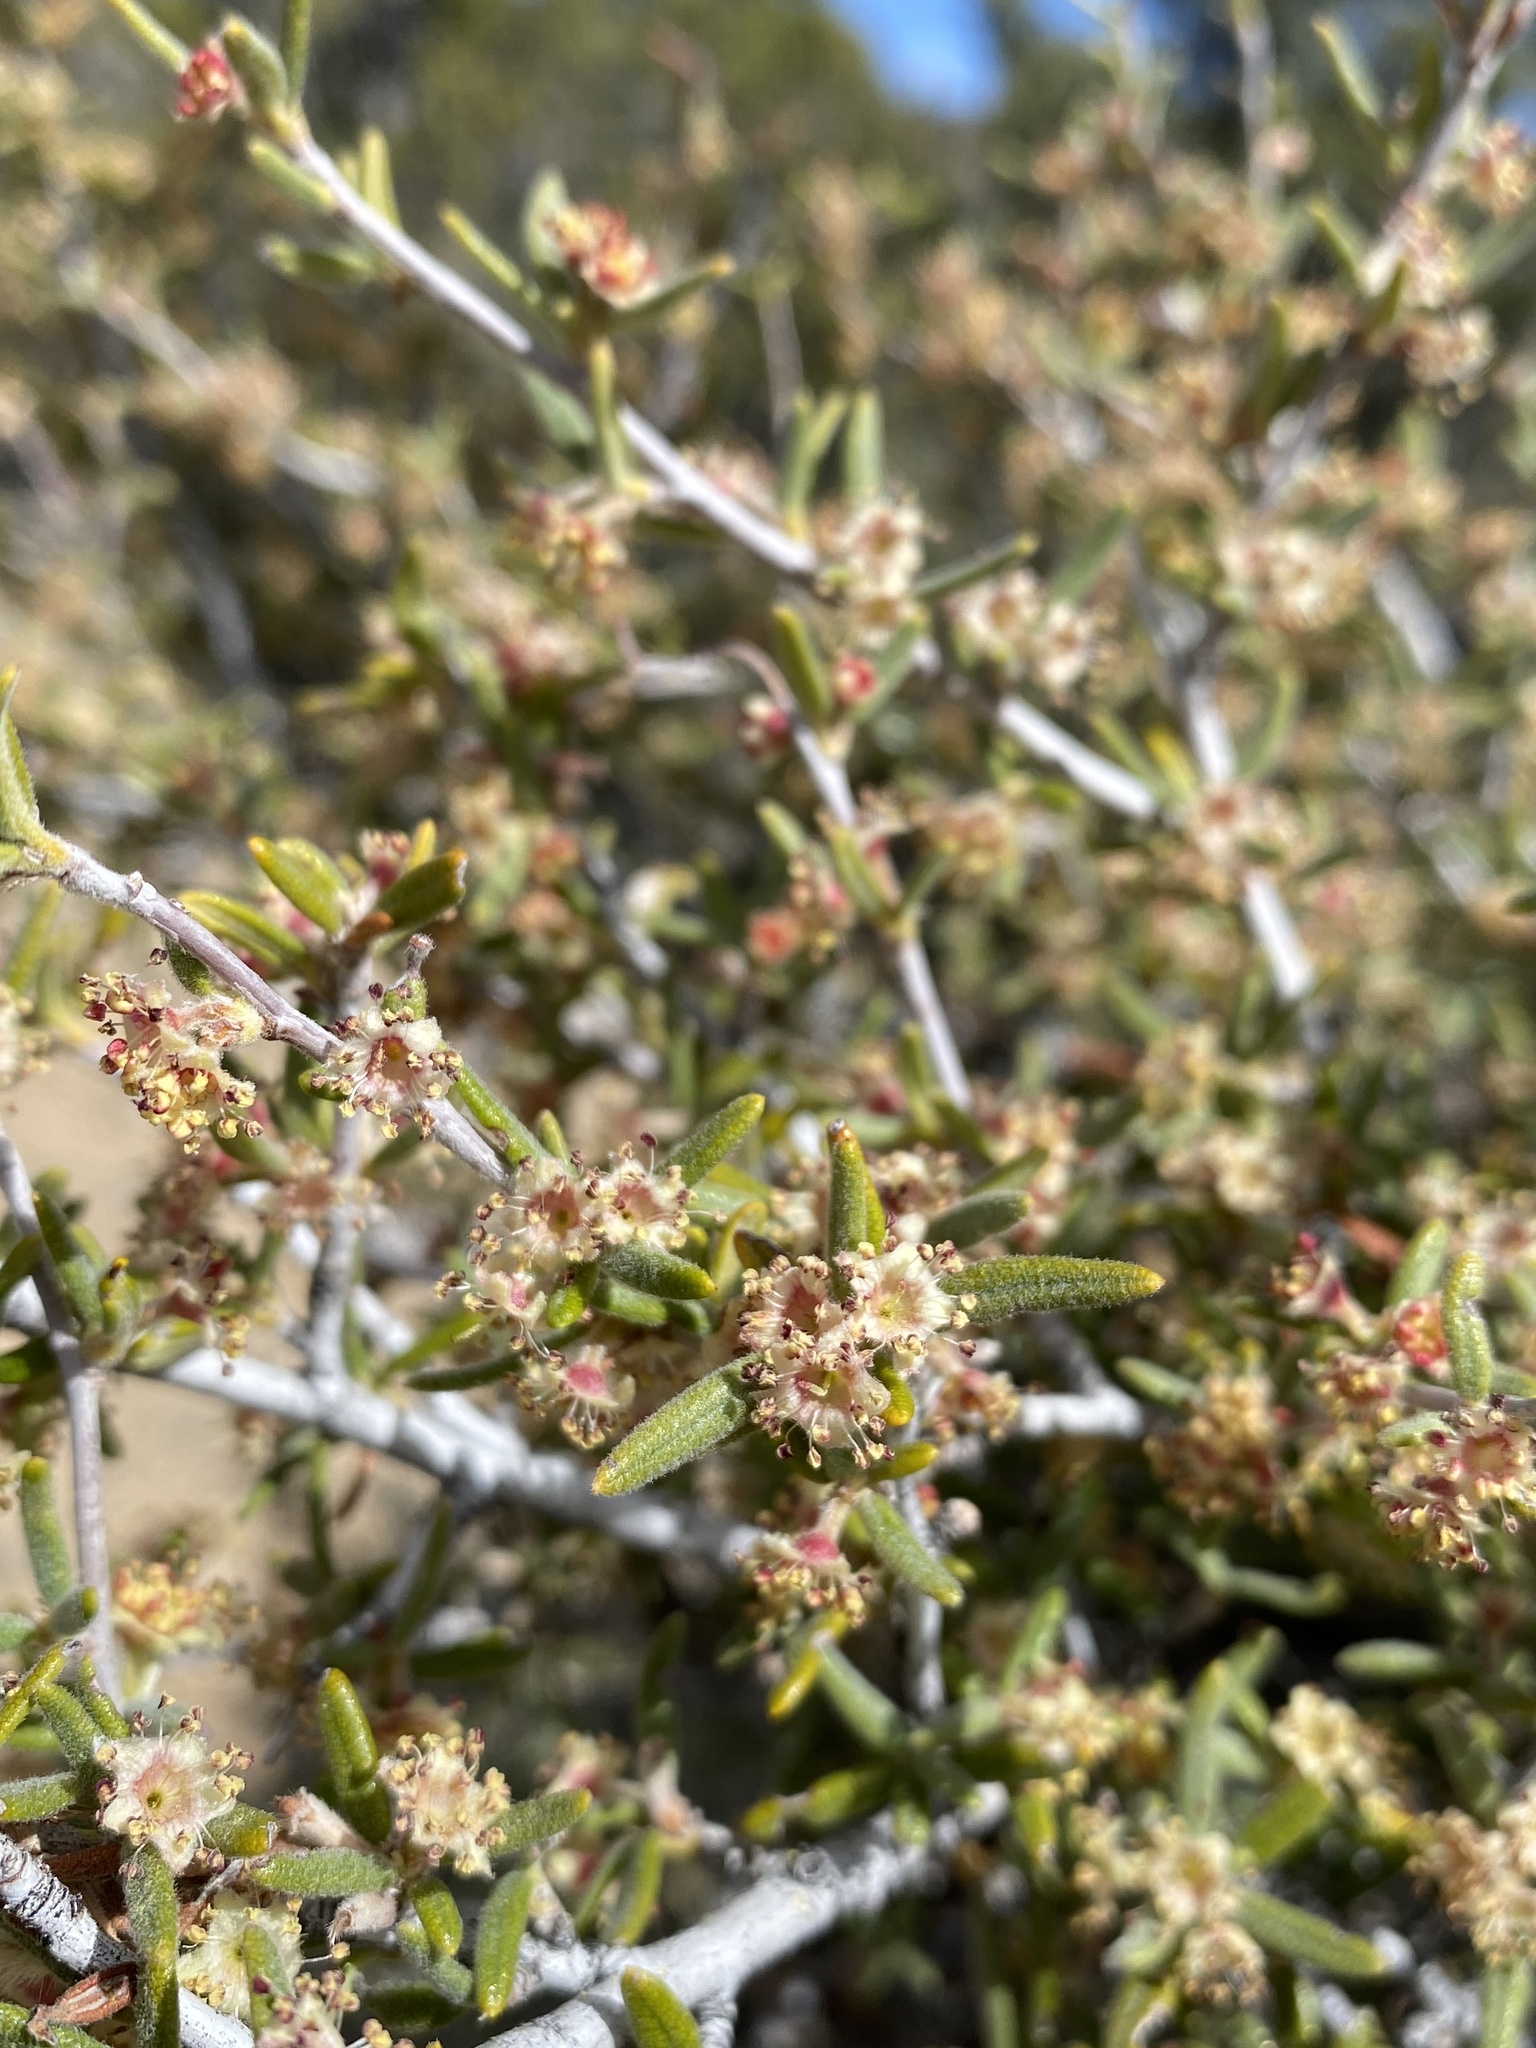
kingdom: Plantae
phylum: Tracheophyta
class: Magnoliopsida
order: Rosales
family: Rosaceae
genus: Cercocarpus
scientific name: Cercocarpus ledifolius
